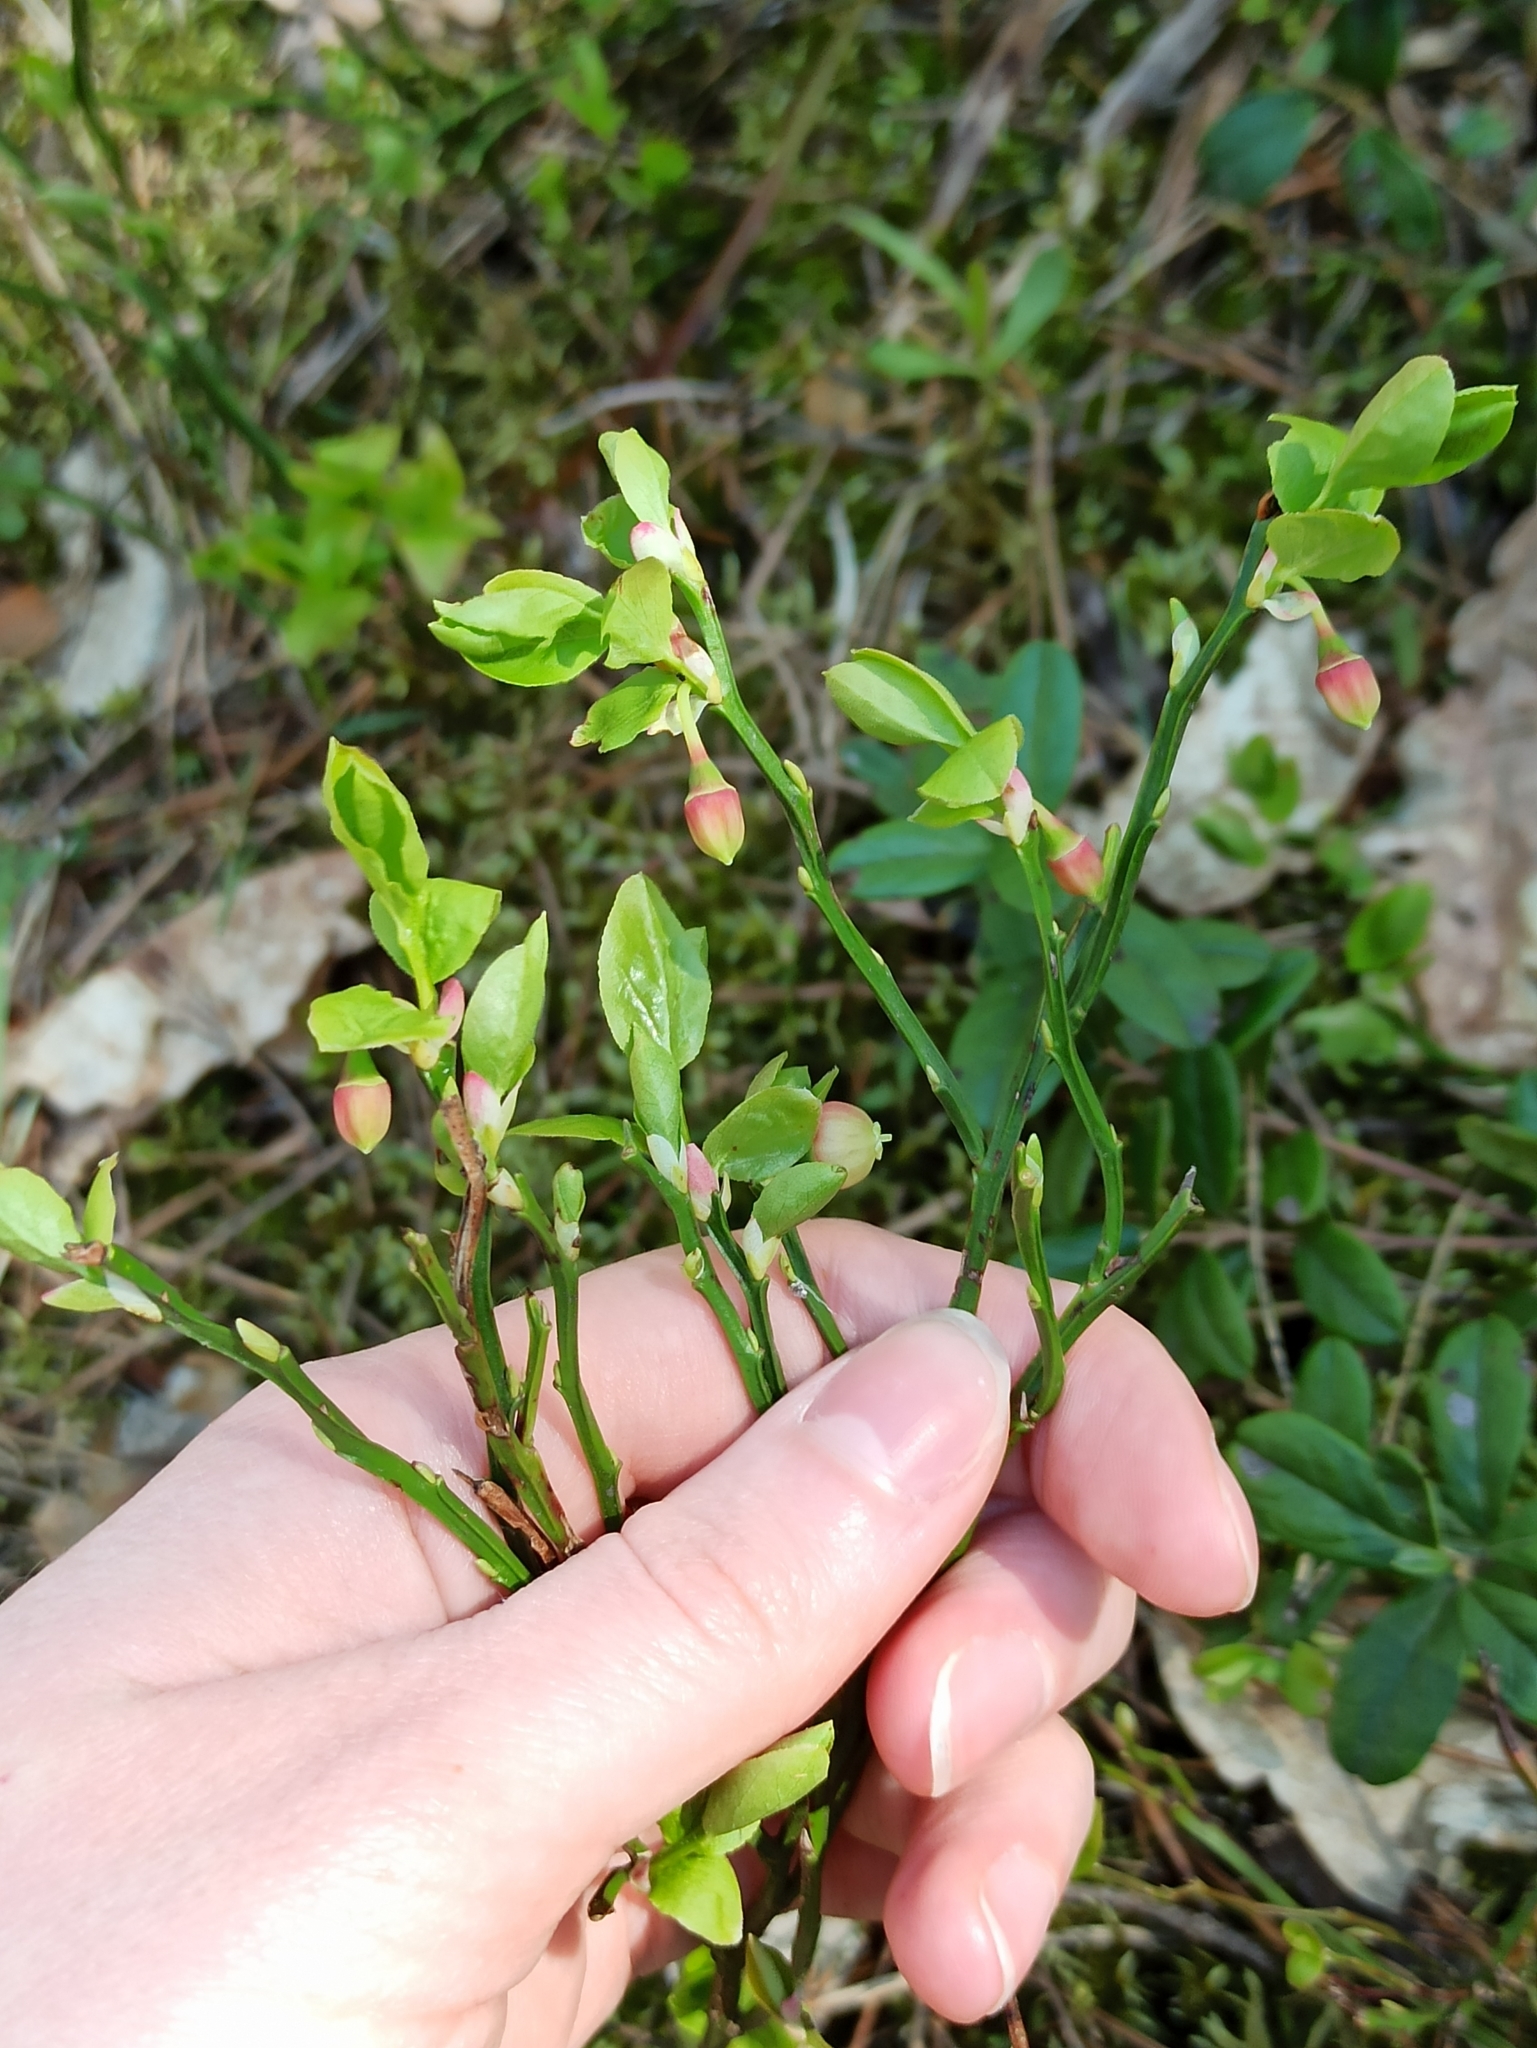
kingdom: Plantae
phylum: Tracheophyta
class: Magnoliopsida
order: Ericales
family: Ericaceae
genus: Vaccinium
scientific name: Vaccinium myrtillus
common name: Bilberry
